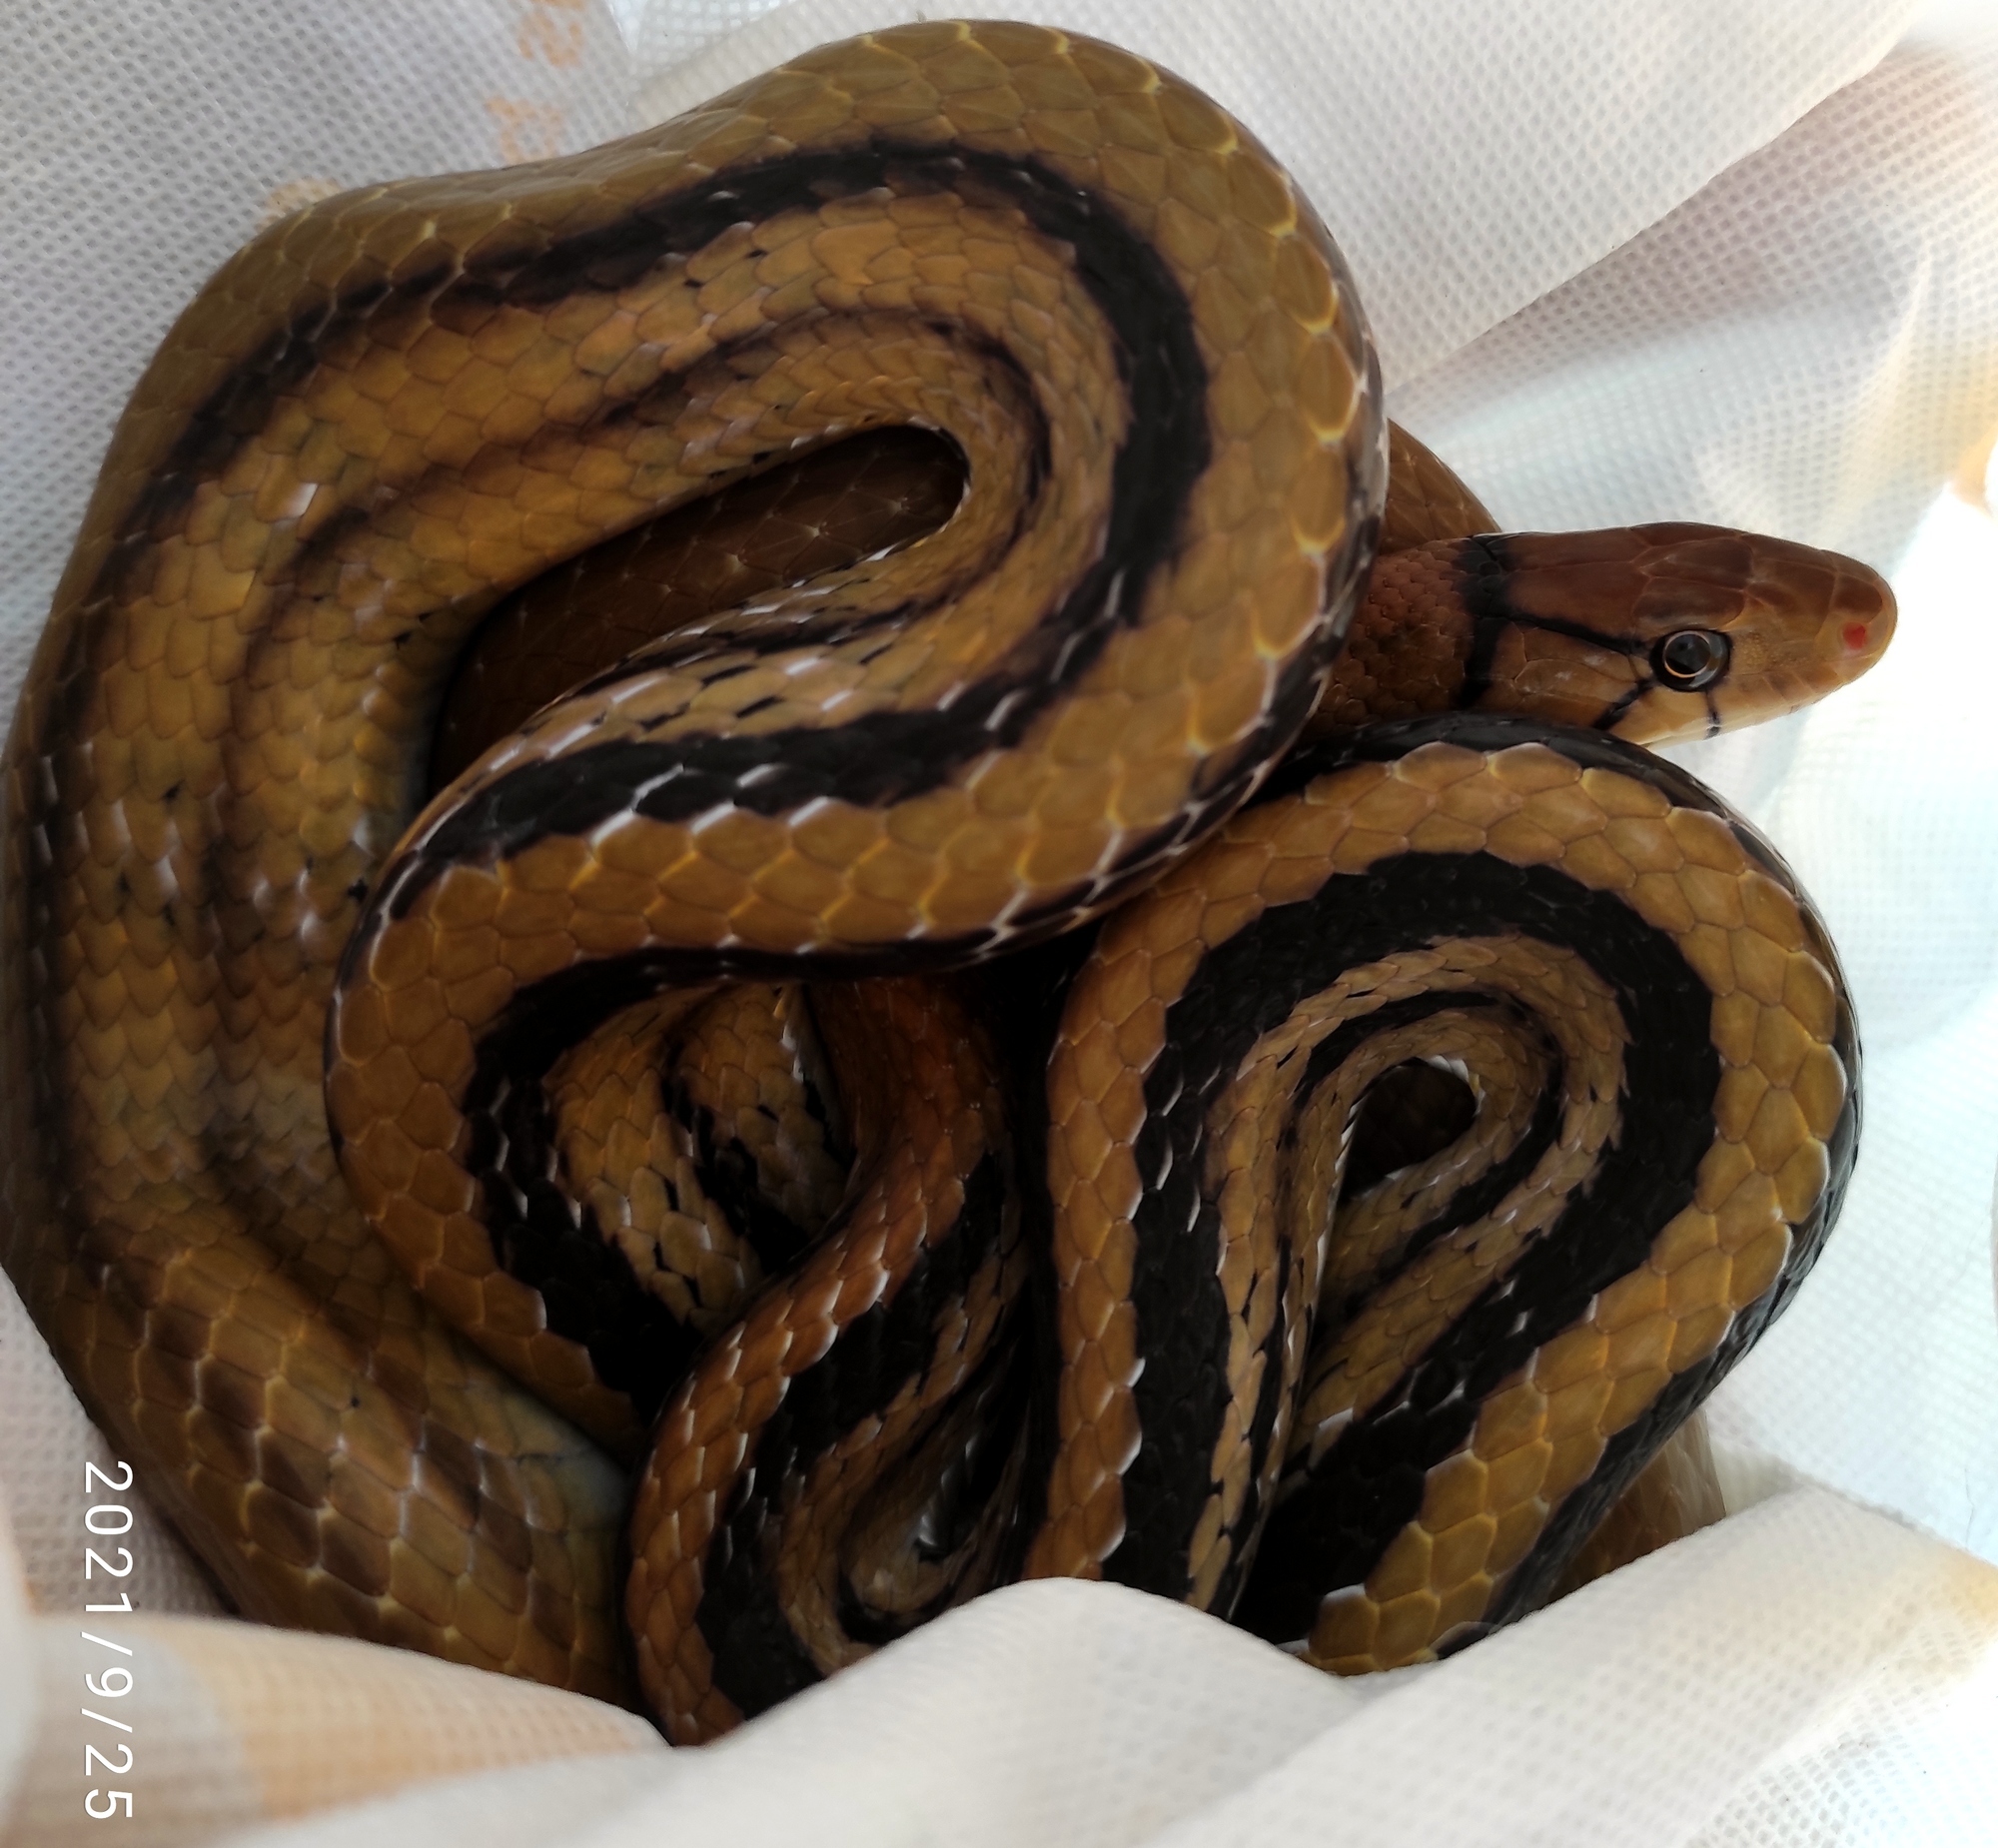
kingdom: Animalia
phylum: Chordata
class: Squamata
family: Colubridae
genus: Coelognathus
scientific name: Coelognathus radiatus
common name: Copperhead rat snake
